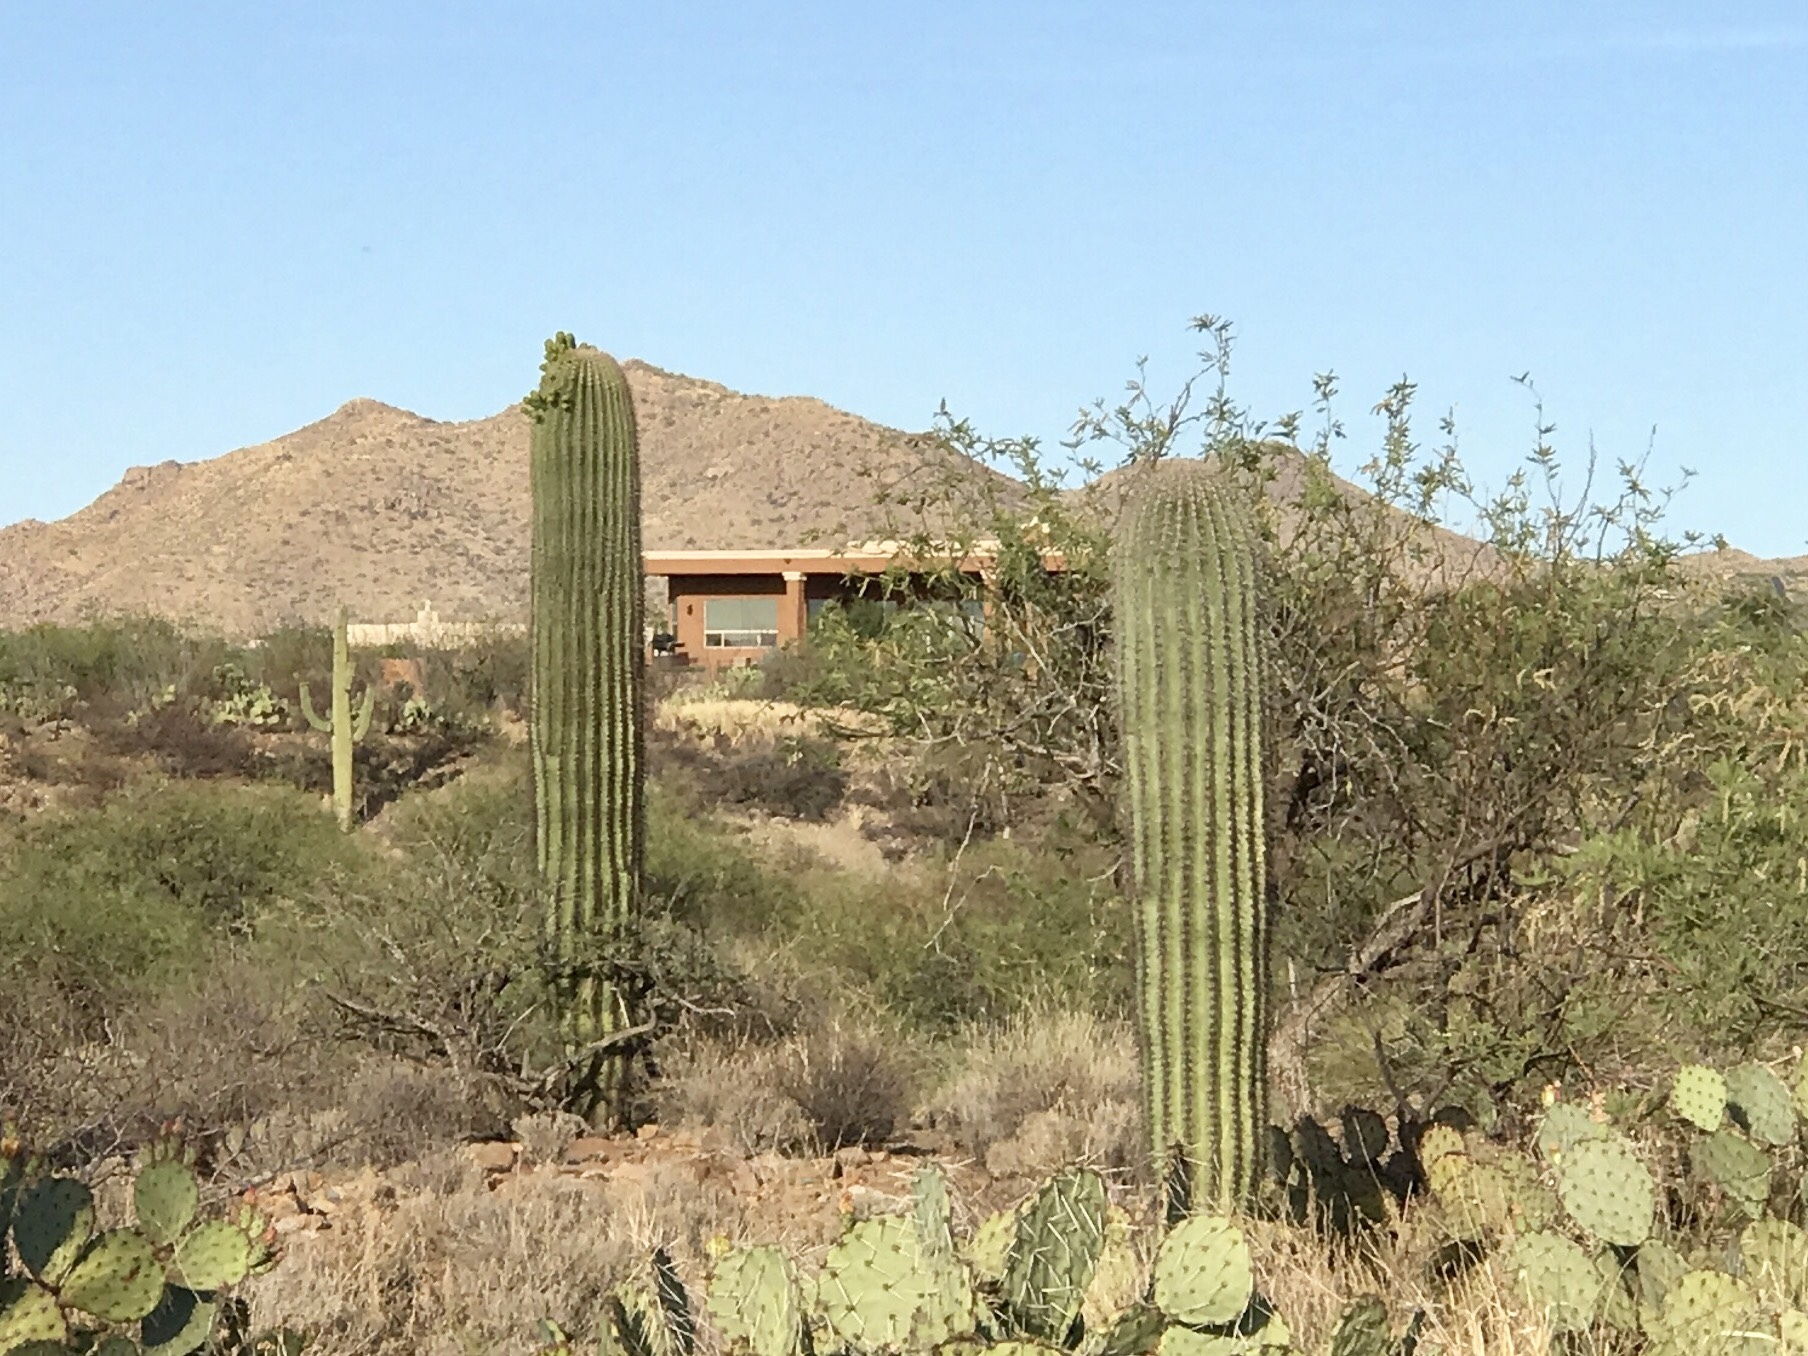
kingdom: Plantae
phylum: Tracheophyta
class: Magnoliopsida
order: Caryophyllales
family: Cactaceae
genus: Carnegiea
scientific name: Carnegiea gigantea
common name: Saguaro
